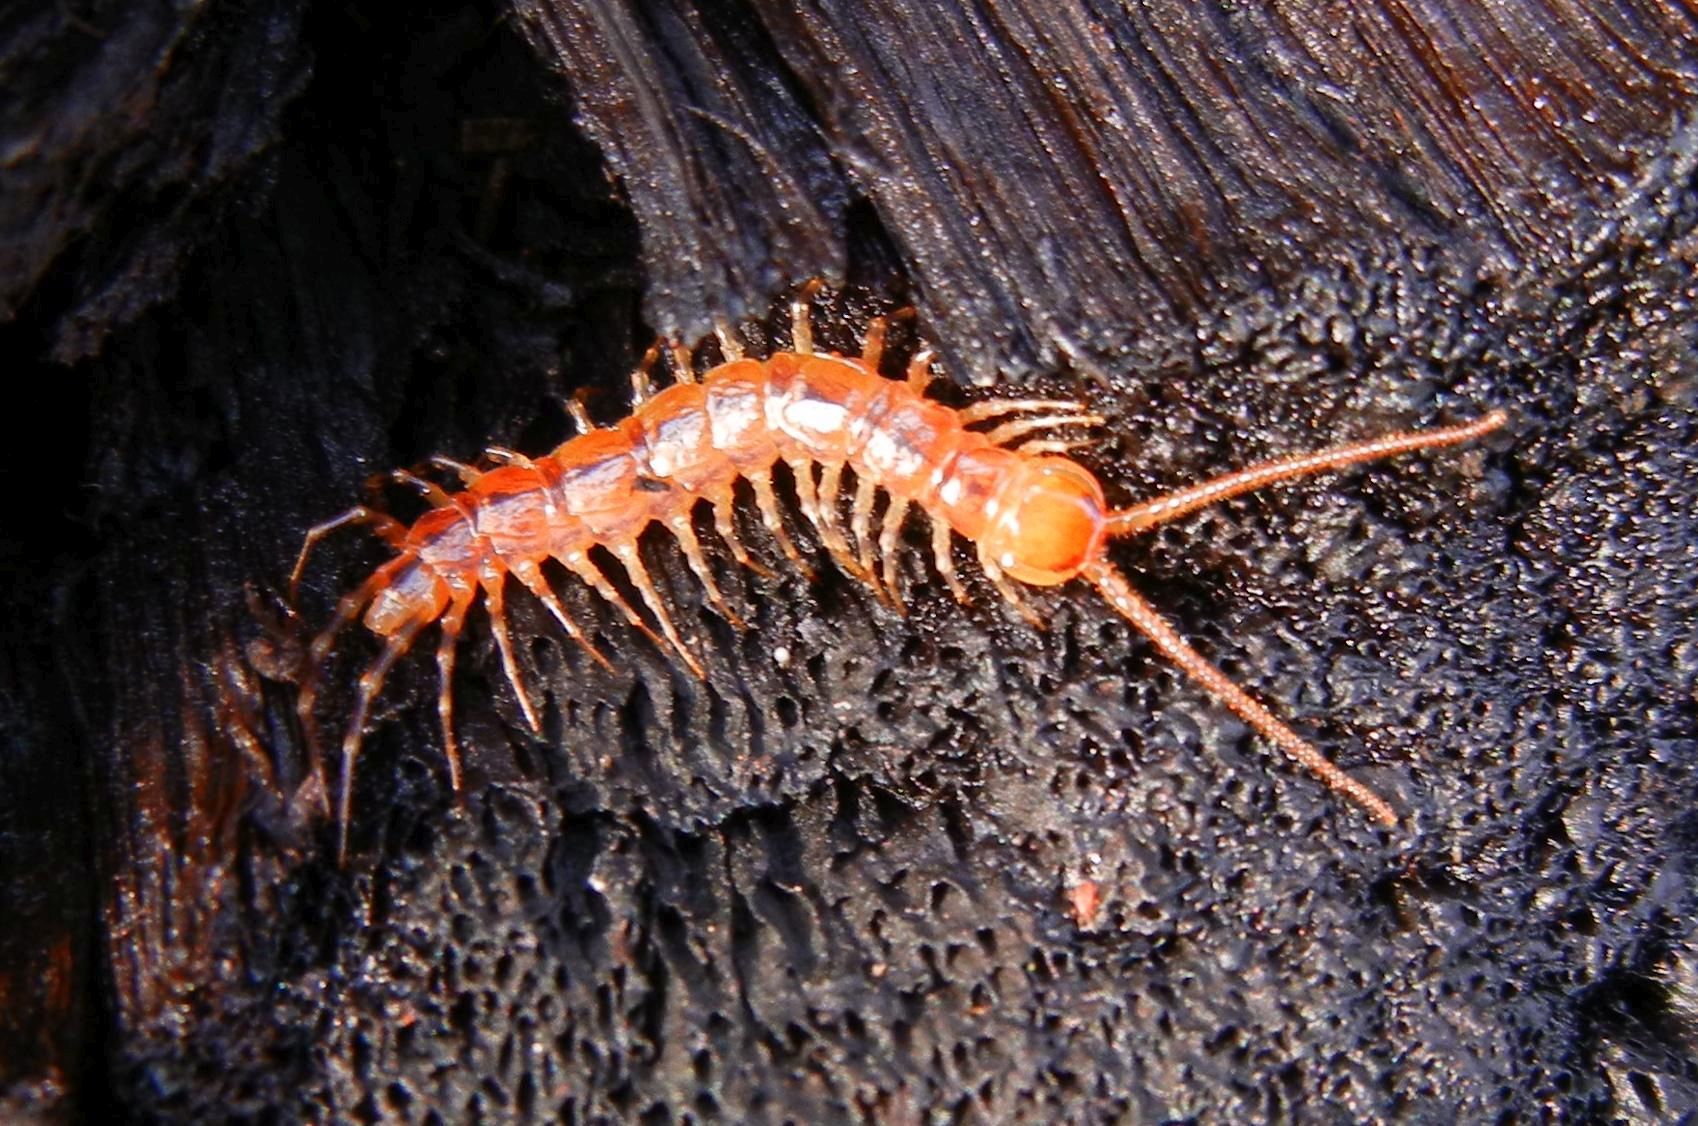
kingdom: Animalia
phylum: Arthropoda
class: Chilopoda
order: Lithobiomorpha
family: Lithobiidae
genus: Lithobius
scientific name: Lithobius variegatus
